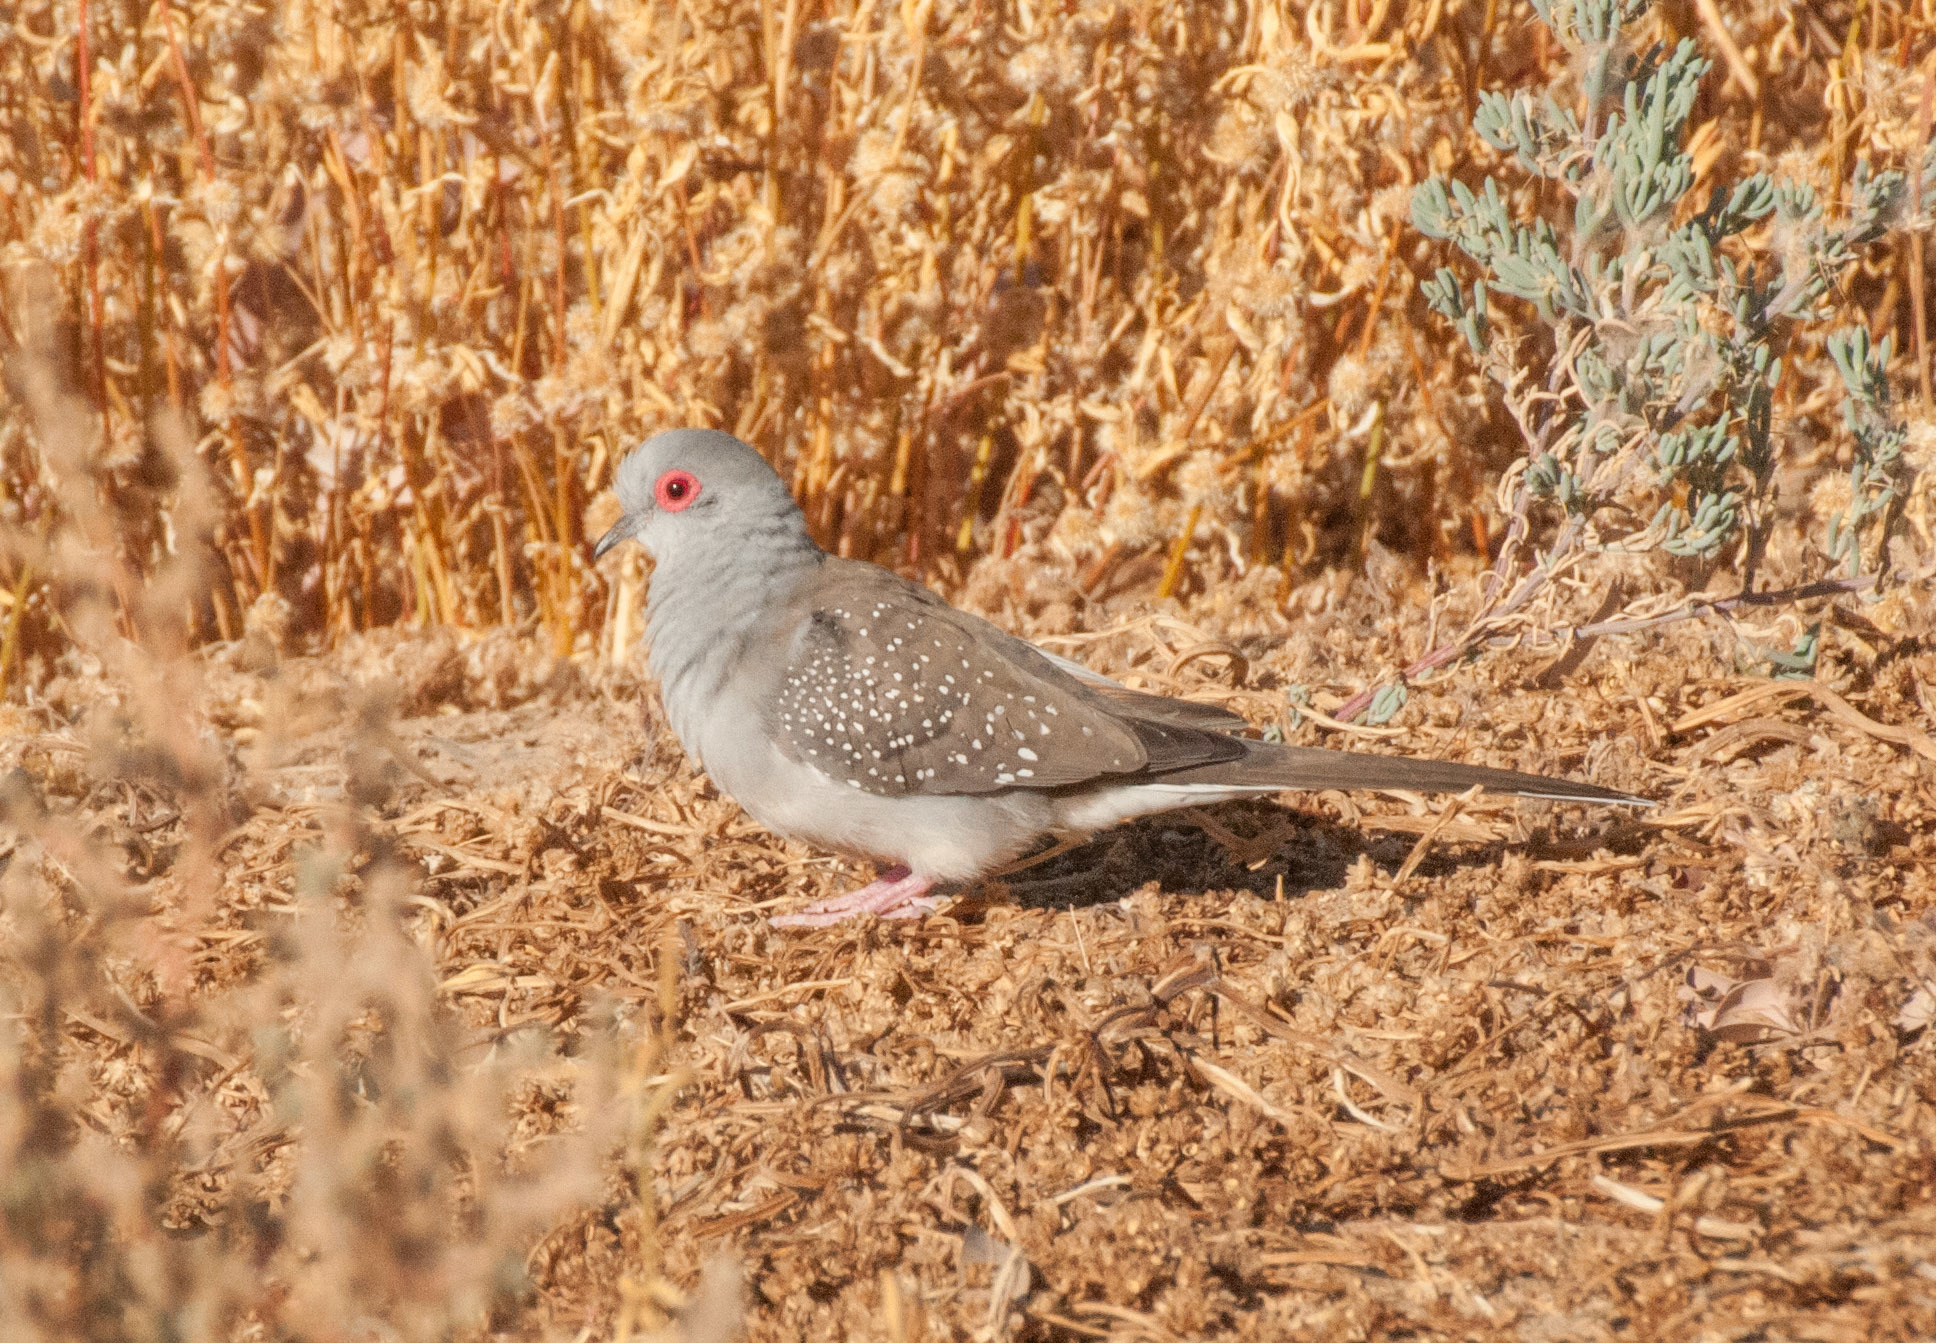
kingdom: Animalia
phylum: Chordata
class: Aves
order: Columbiformes
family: Columbidae
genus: Geopelia
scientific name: Geopelia cuneata
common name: Diamond dove
